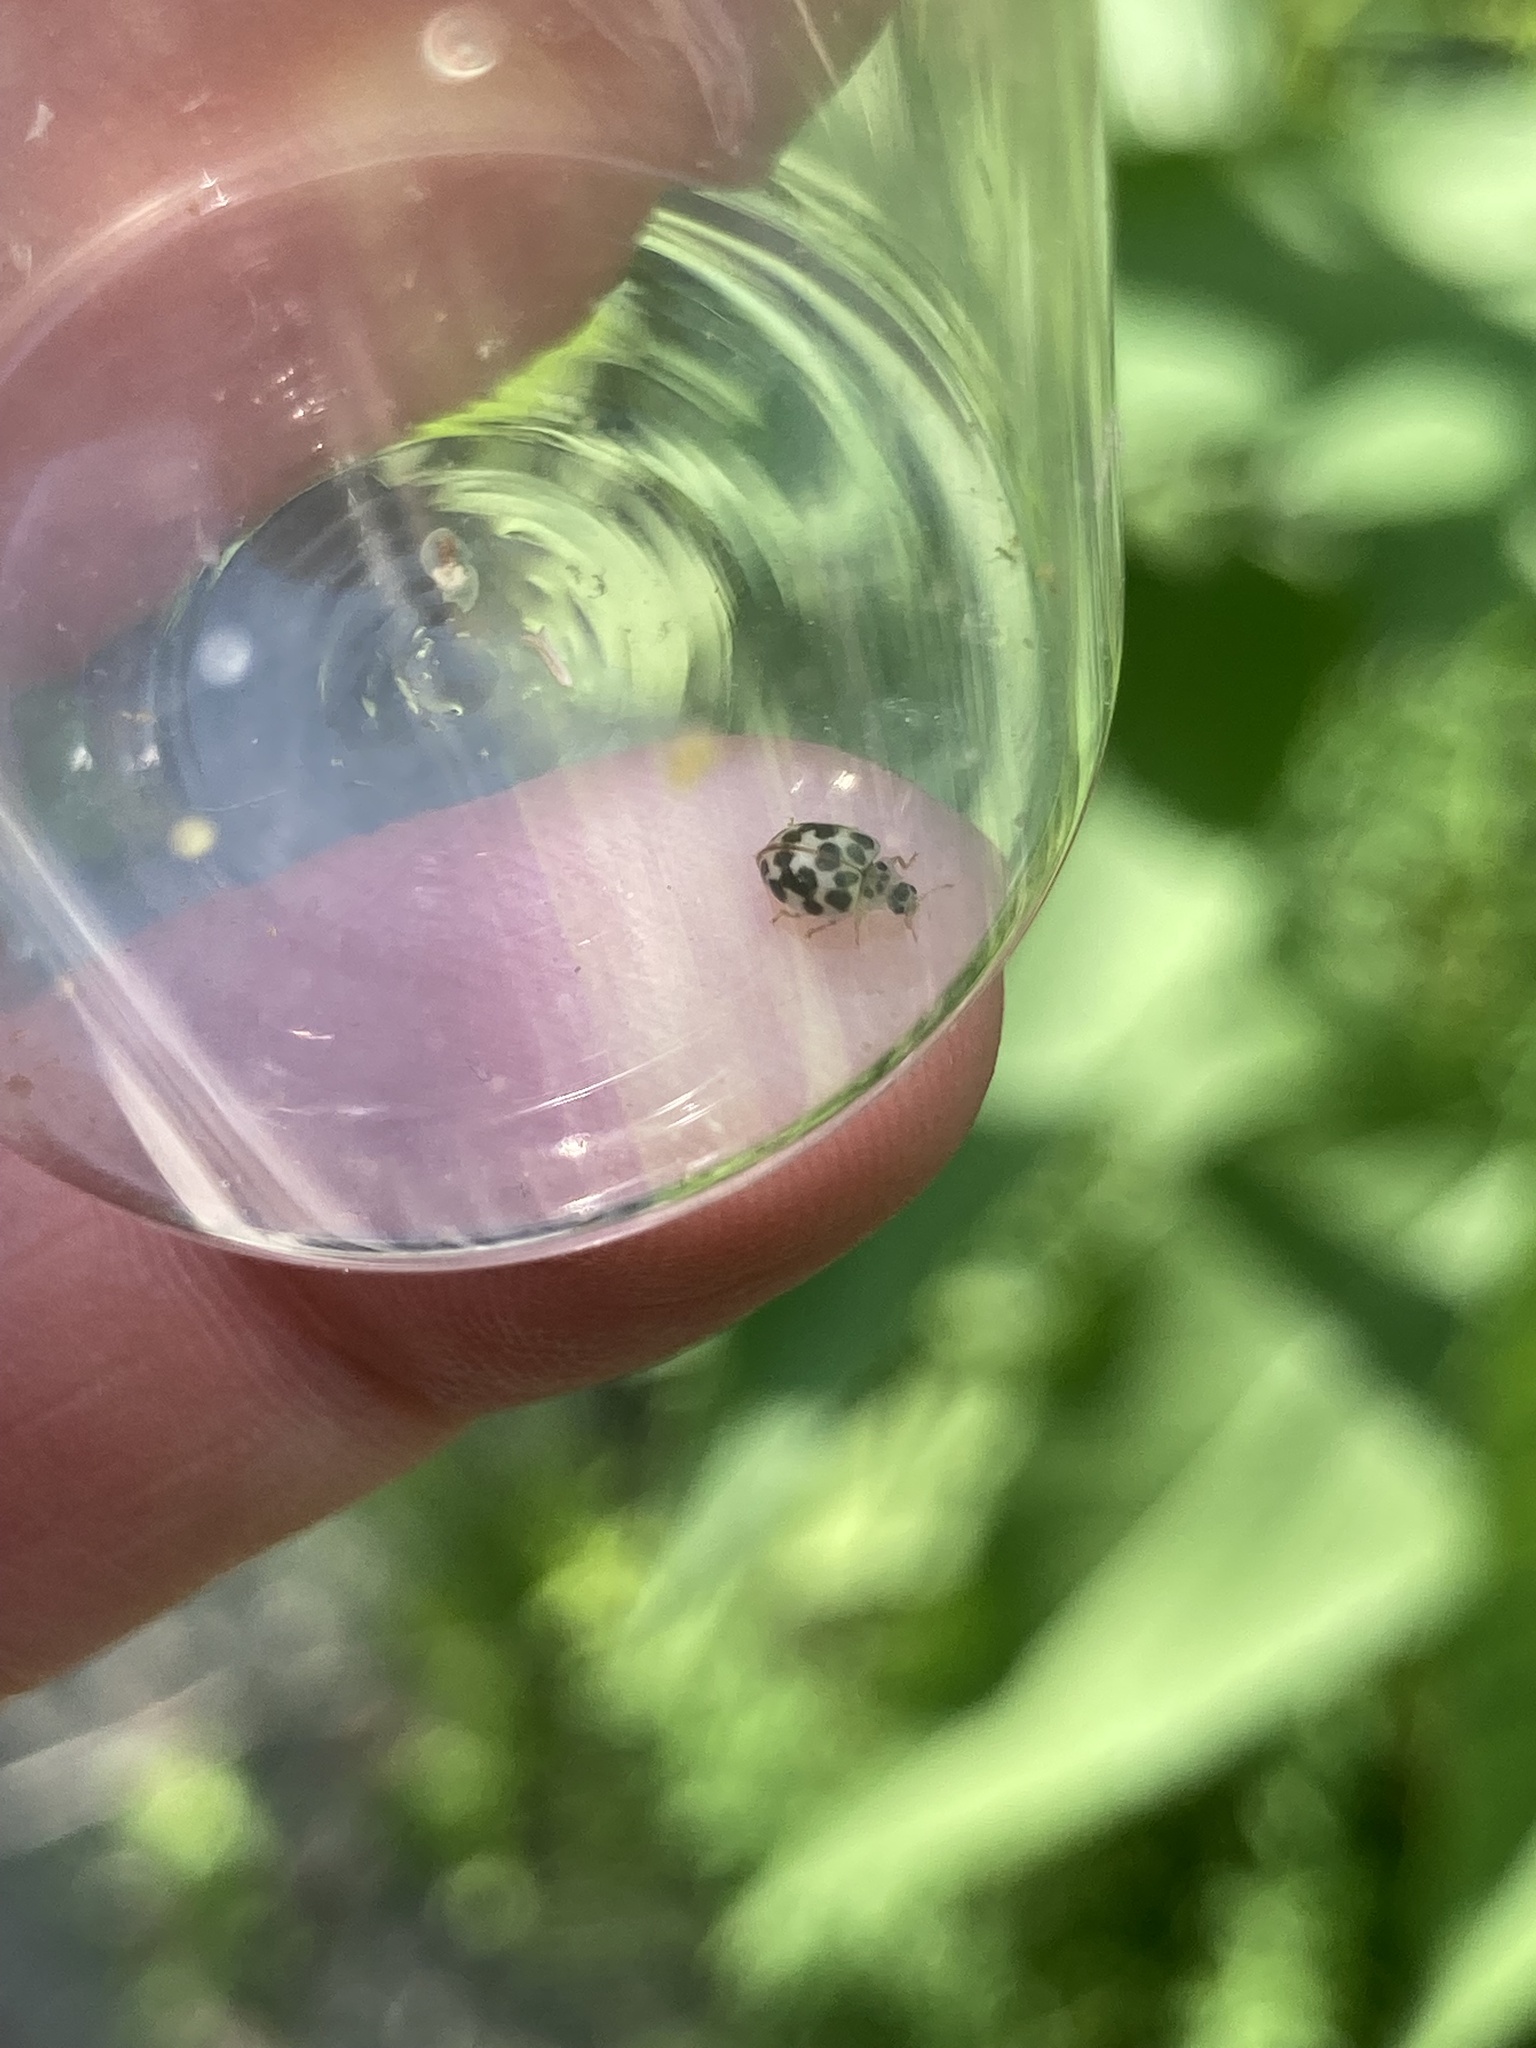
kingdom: Animalia
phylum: Arthropoda
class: Insecta
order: Coleoptera
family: Coccinellidae
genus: Psyllobora
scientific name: Psyllobora vigintimaculata
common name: Ladybird beetle
